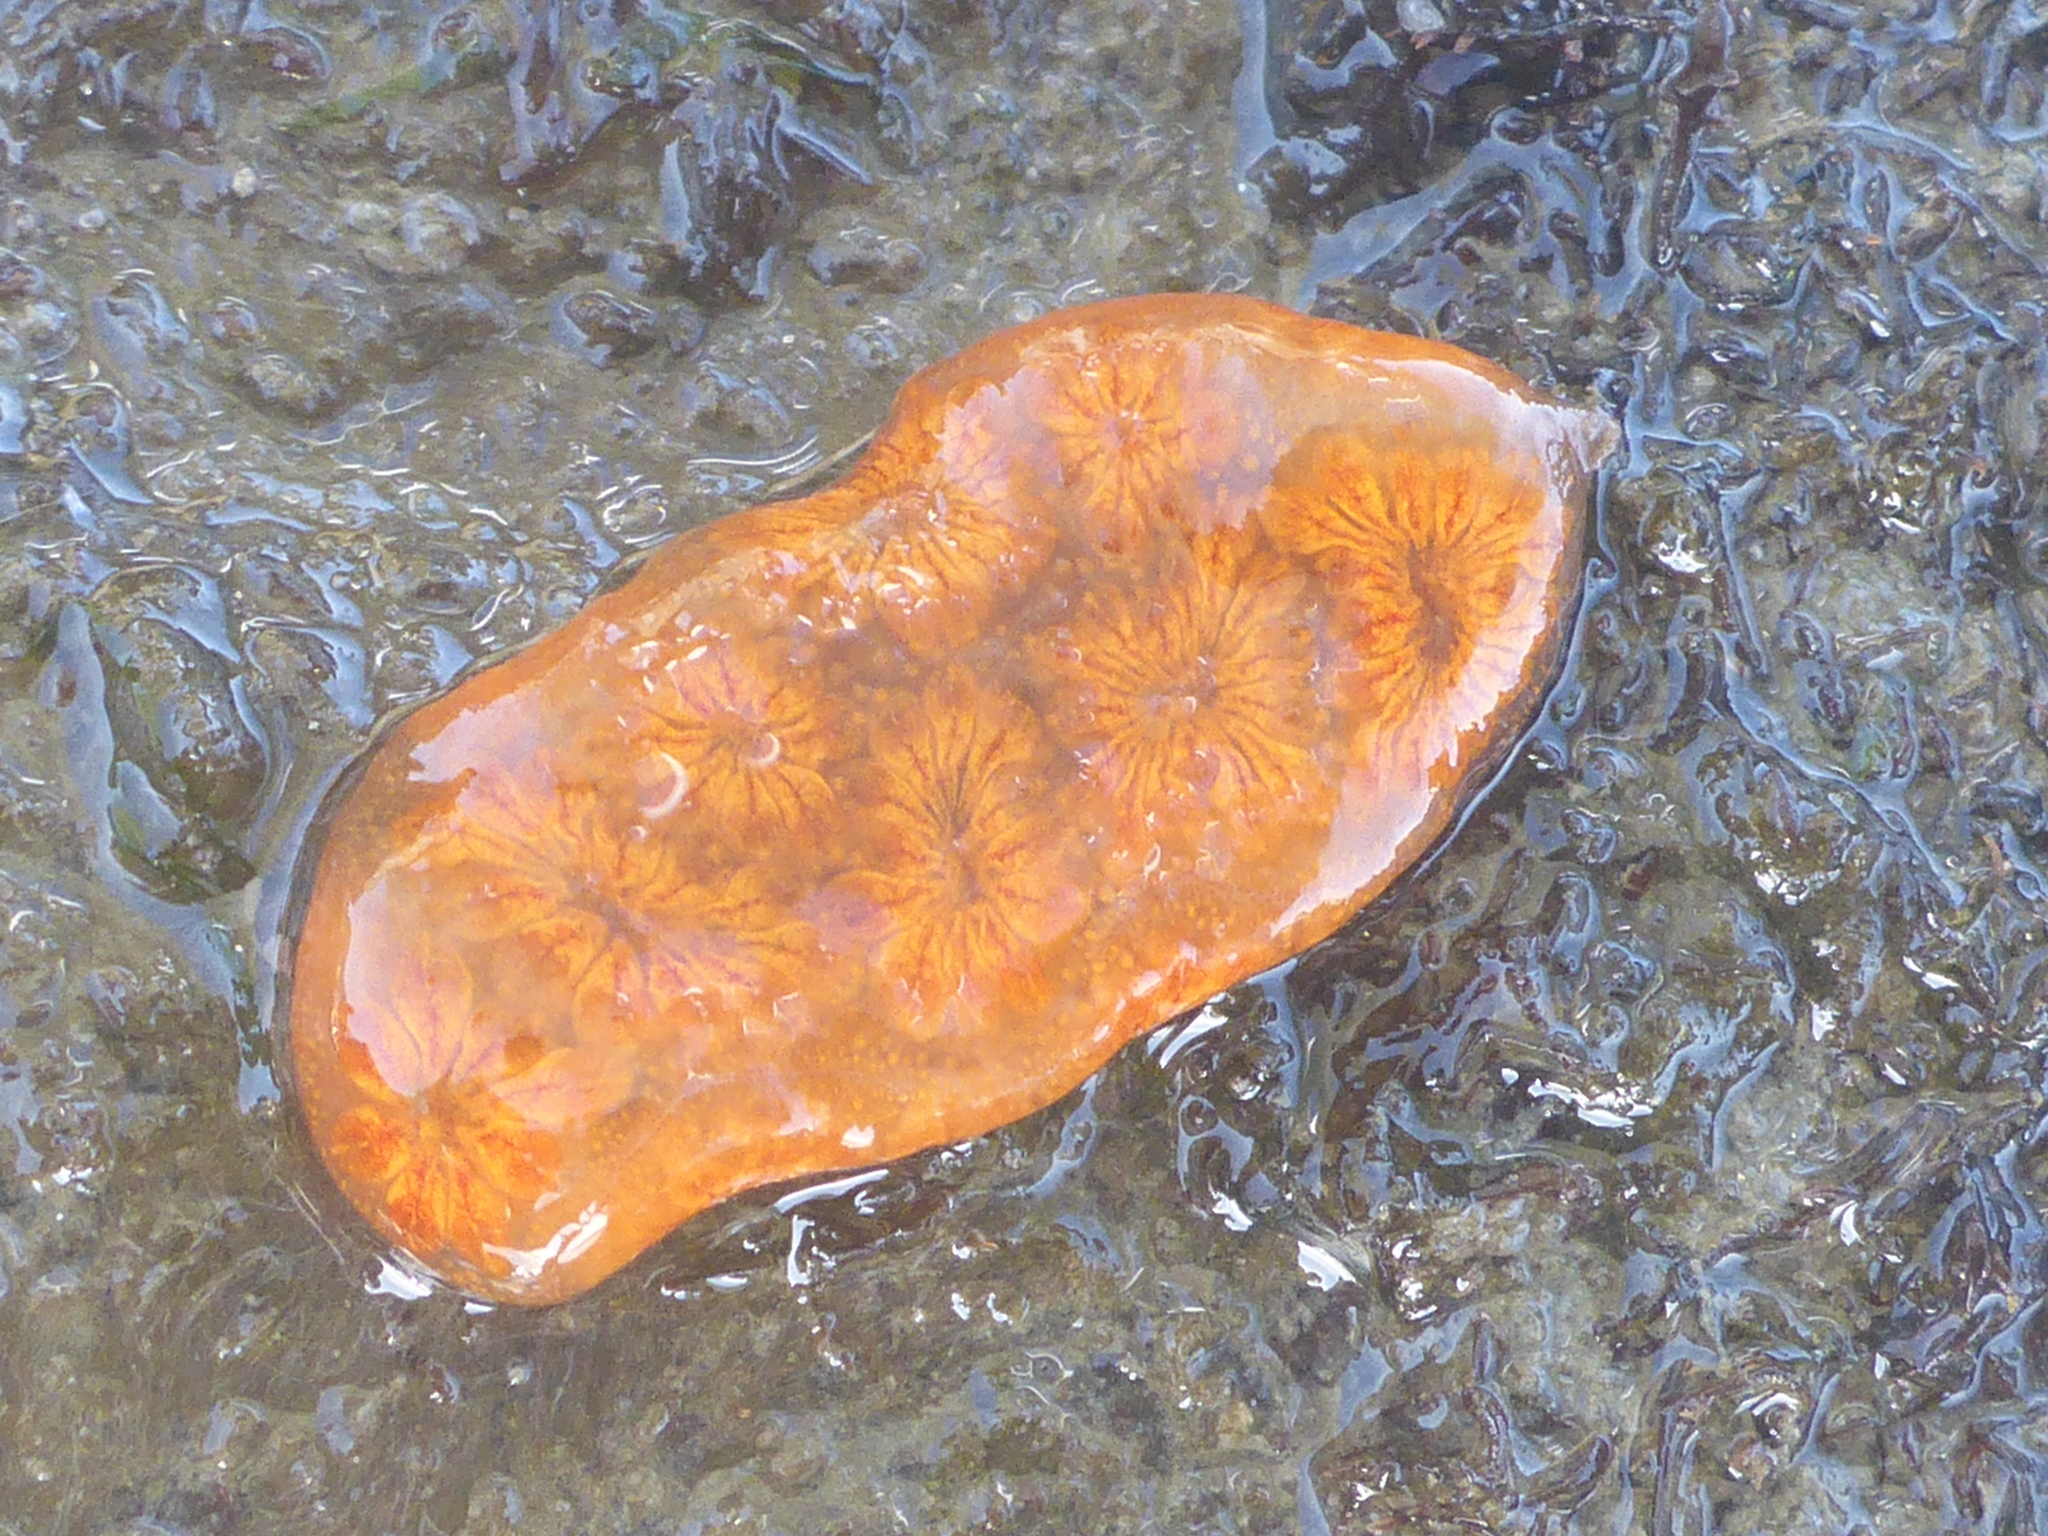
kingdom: Animalia
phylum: Chordata
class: Ascidiacea
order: Stolidobranchia
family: Styelidae
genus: Botryllus
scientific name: Botryllus schlosseri
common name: Golden star tunicate
